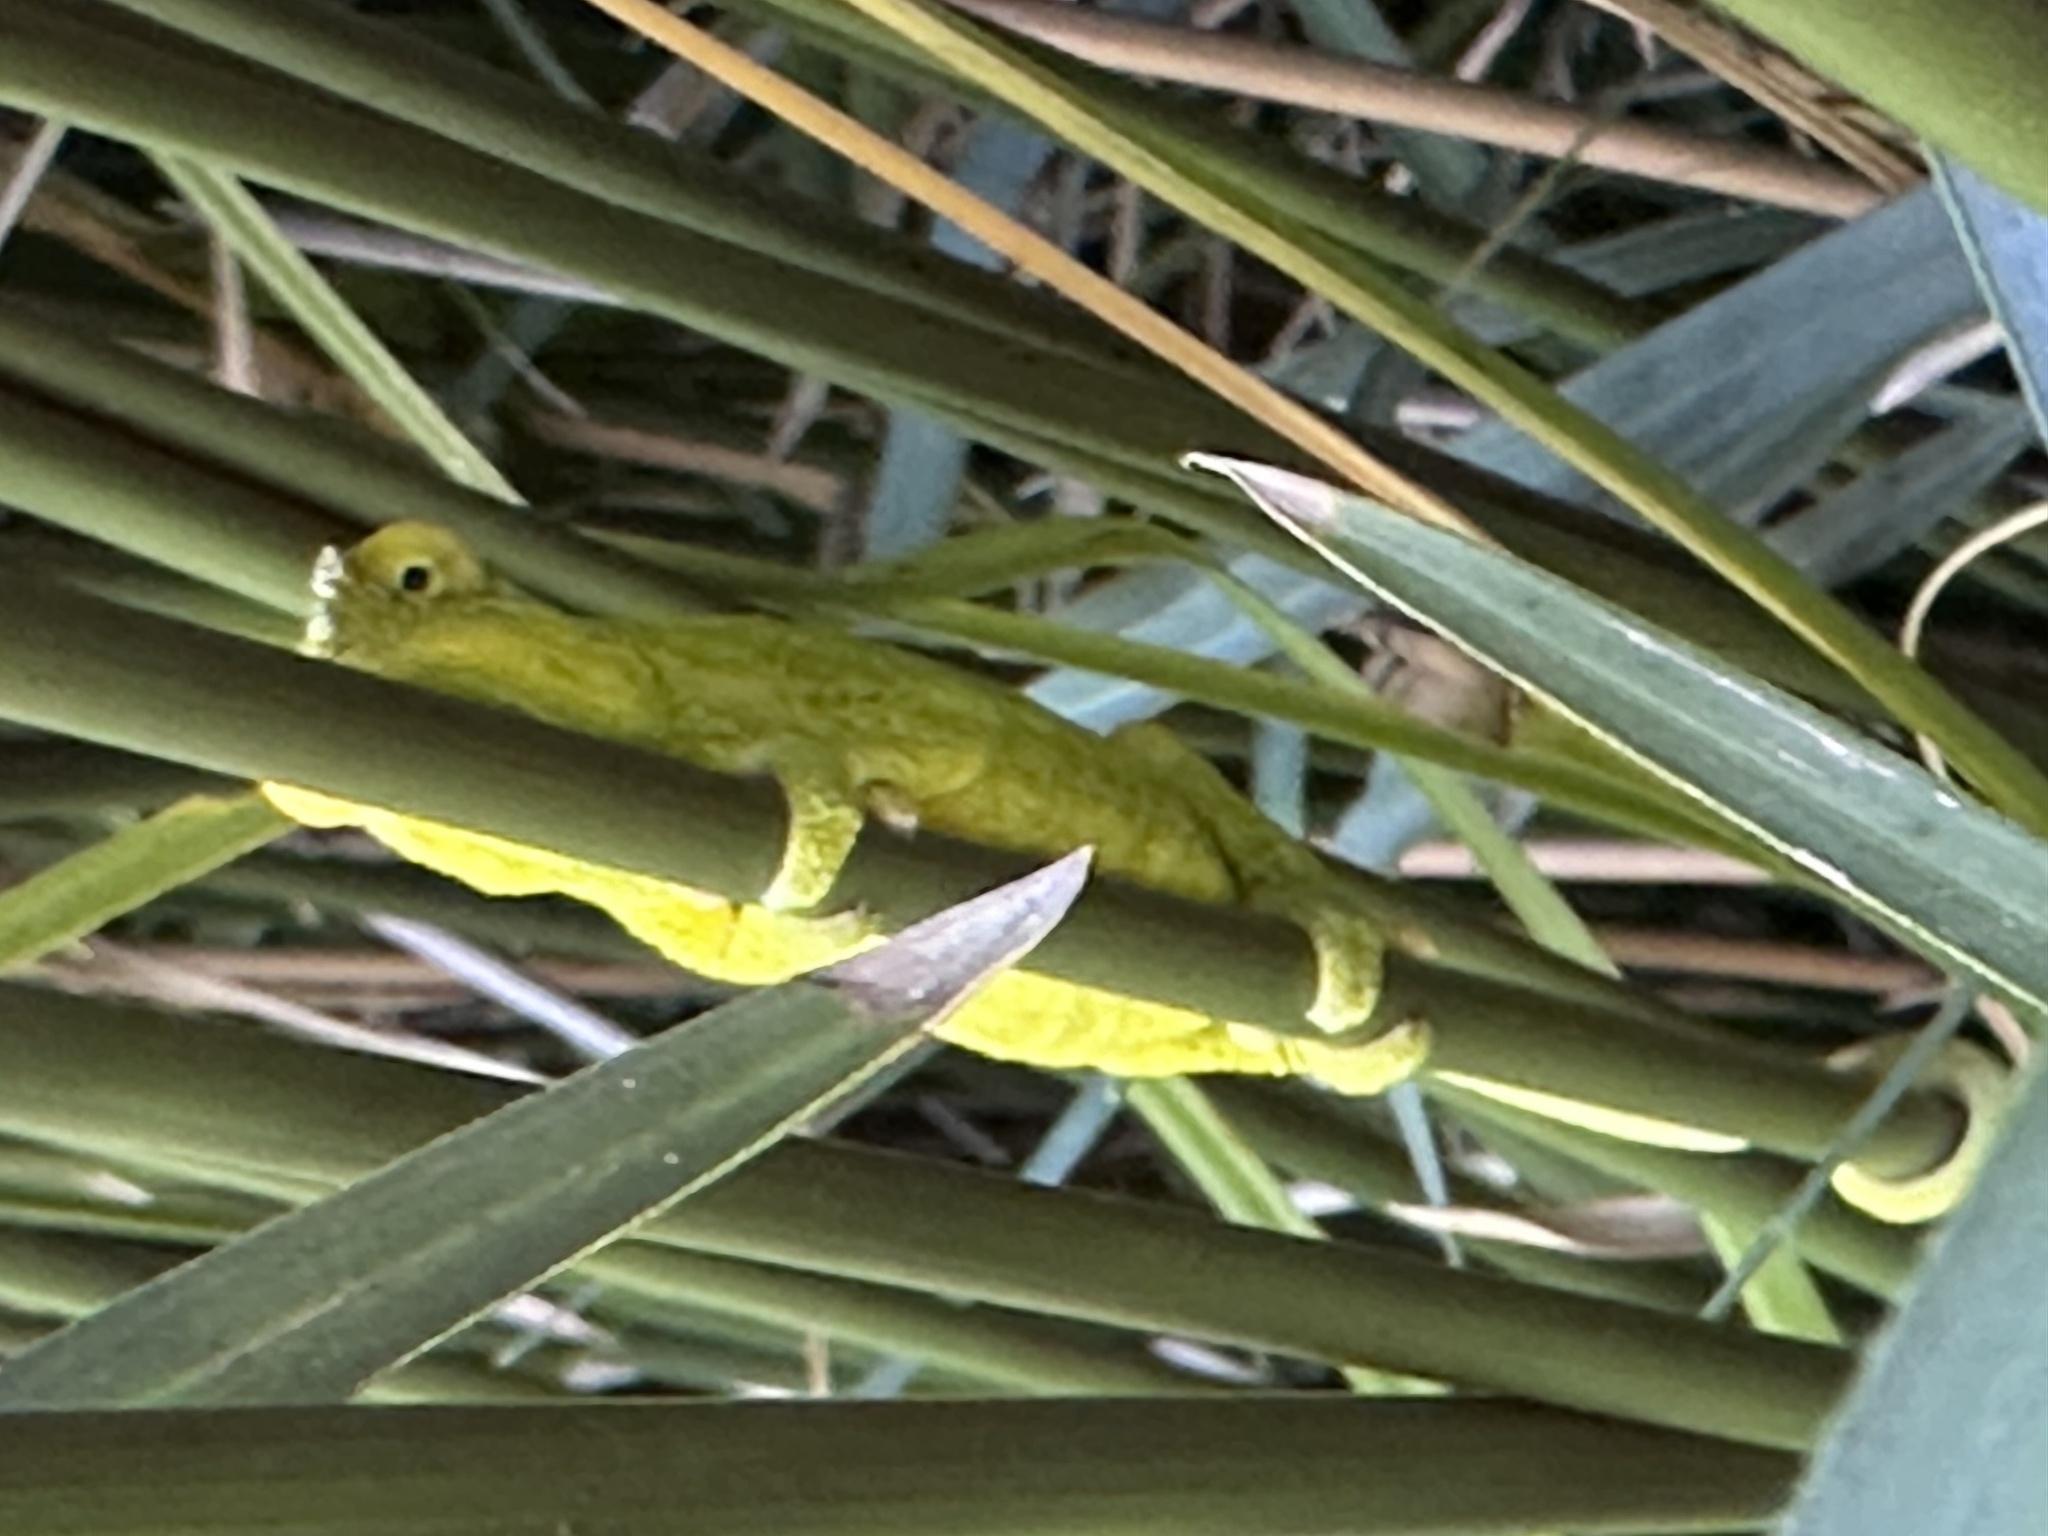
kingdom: Animalia
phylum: Chordata
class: Squamata
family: Chamaeleonidae
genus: Bradypodion
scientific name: Bradypodion pumilum
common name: Cape dwarf chameleon
